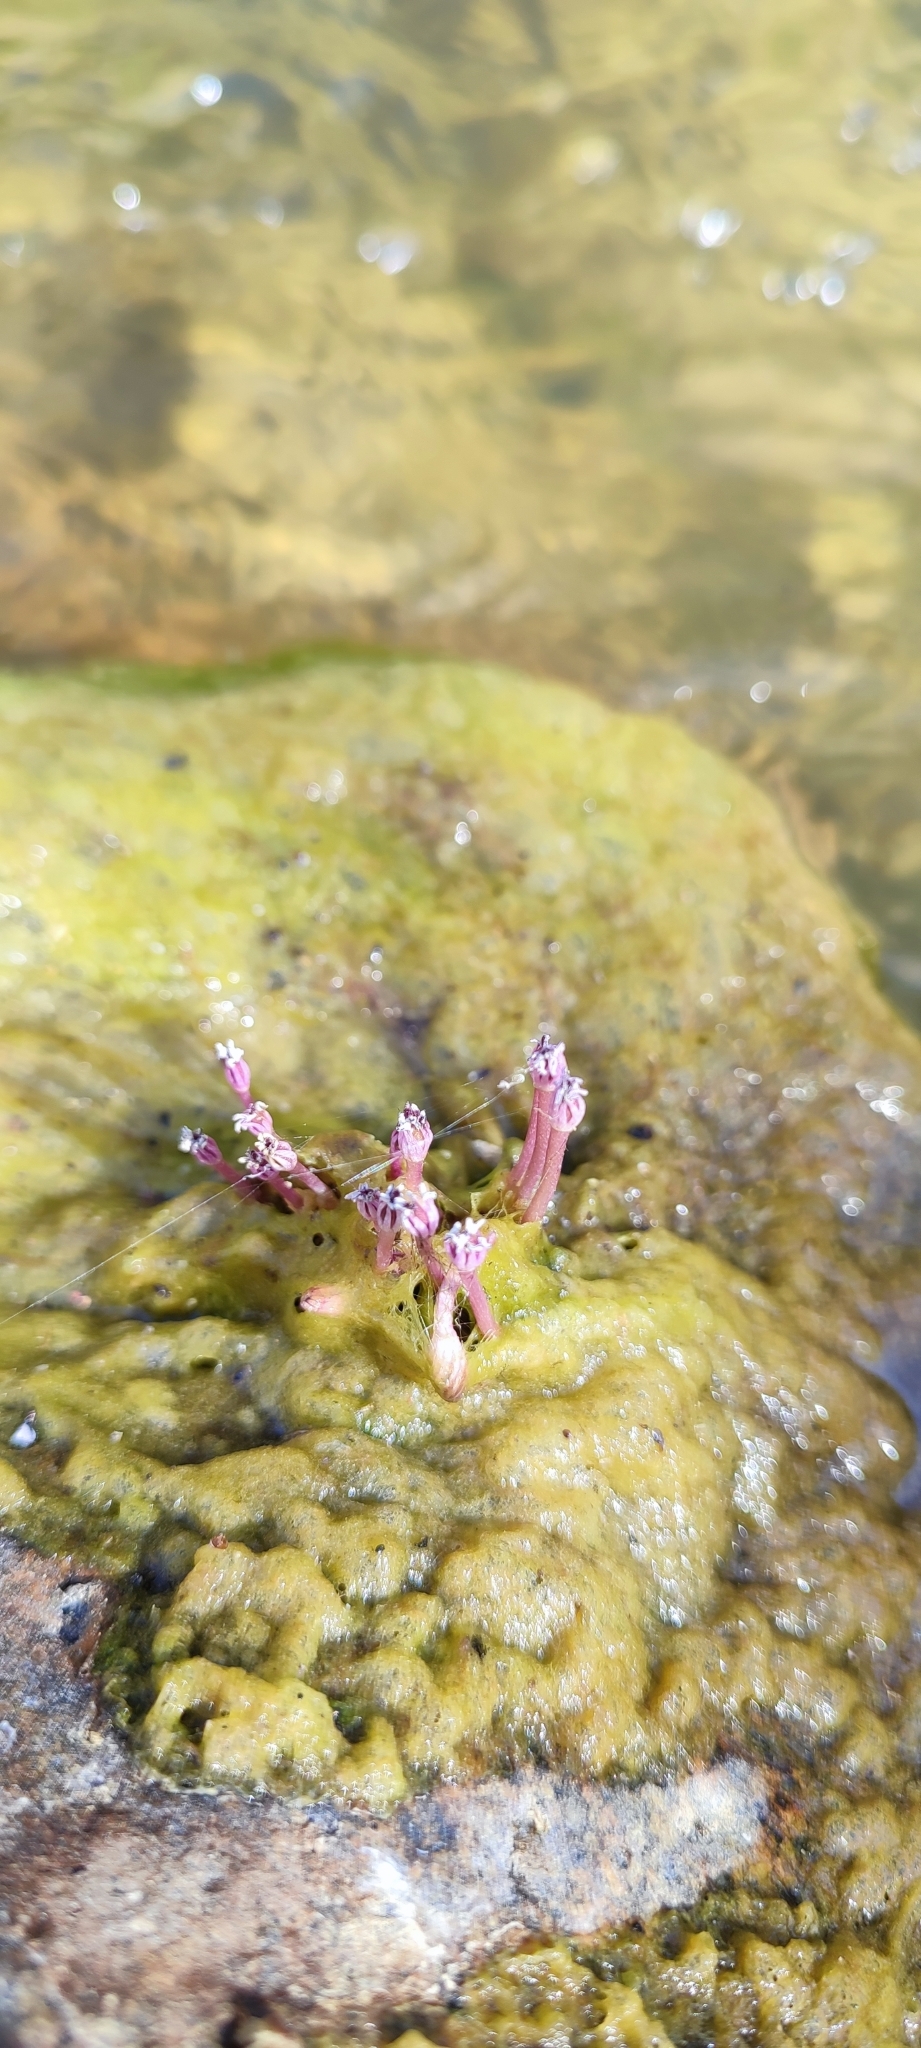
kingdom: Plantae
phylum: Tracheophyta
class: Magnoliopsida
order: Malpighiales
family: Podostemaceae
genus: Marathrum
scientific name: Marathrum foeniculaceum
